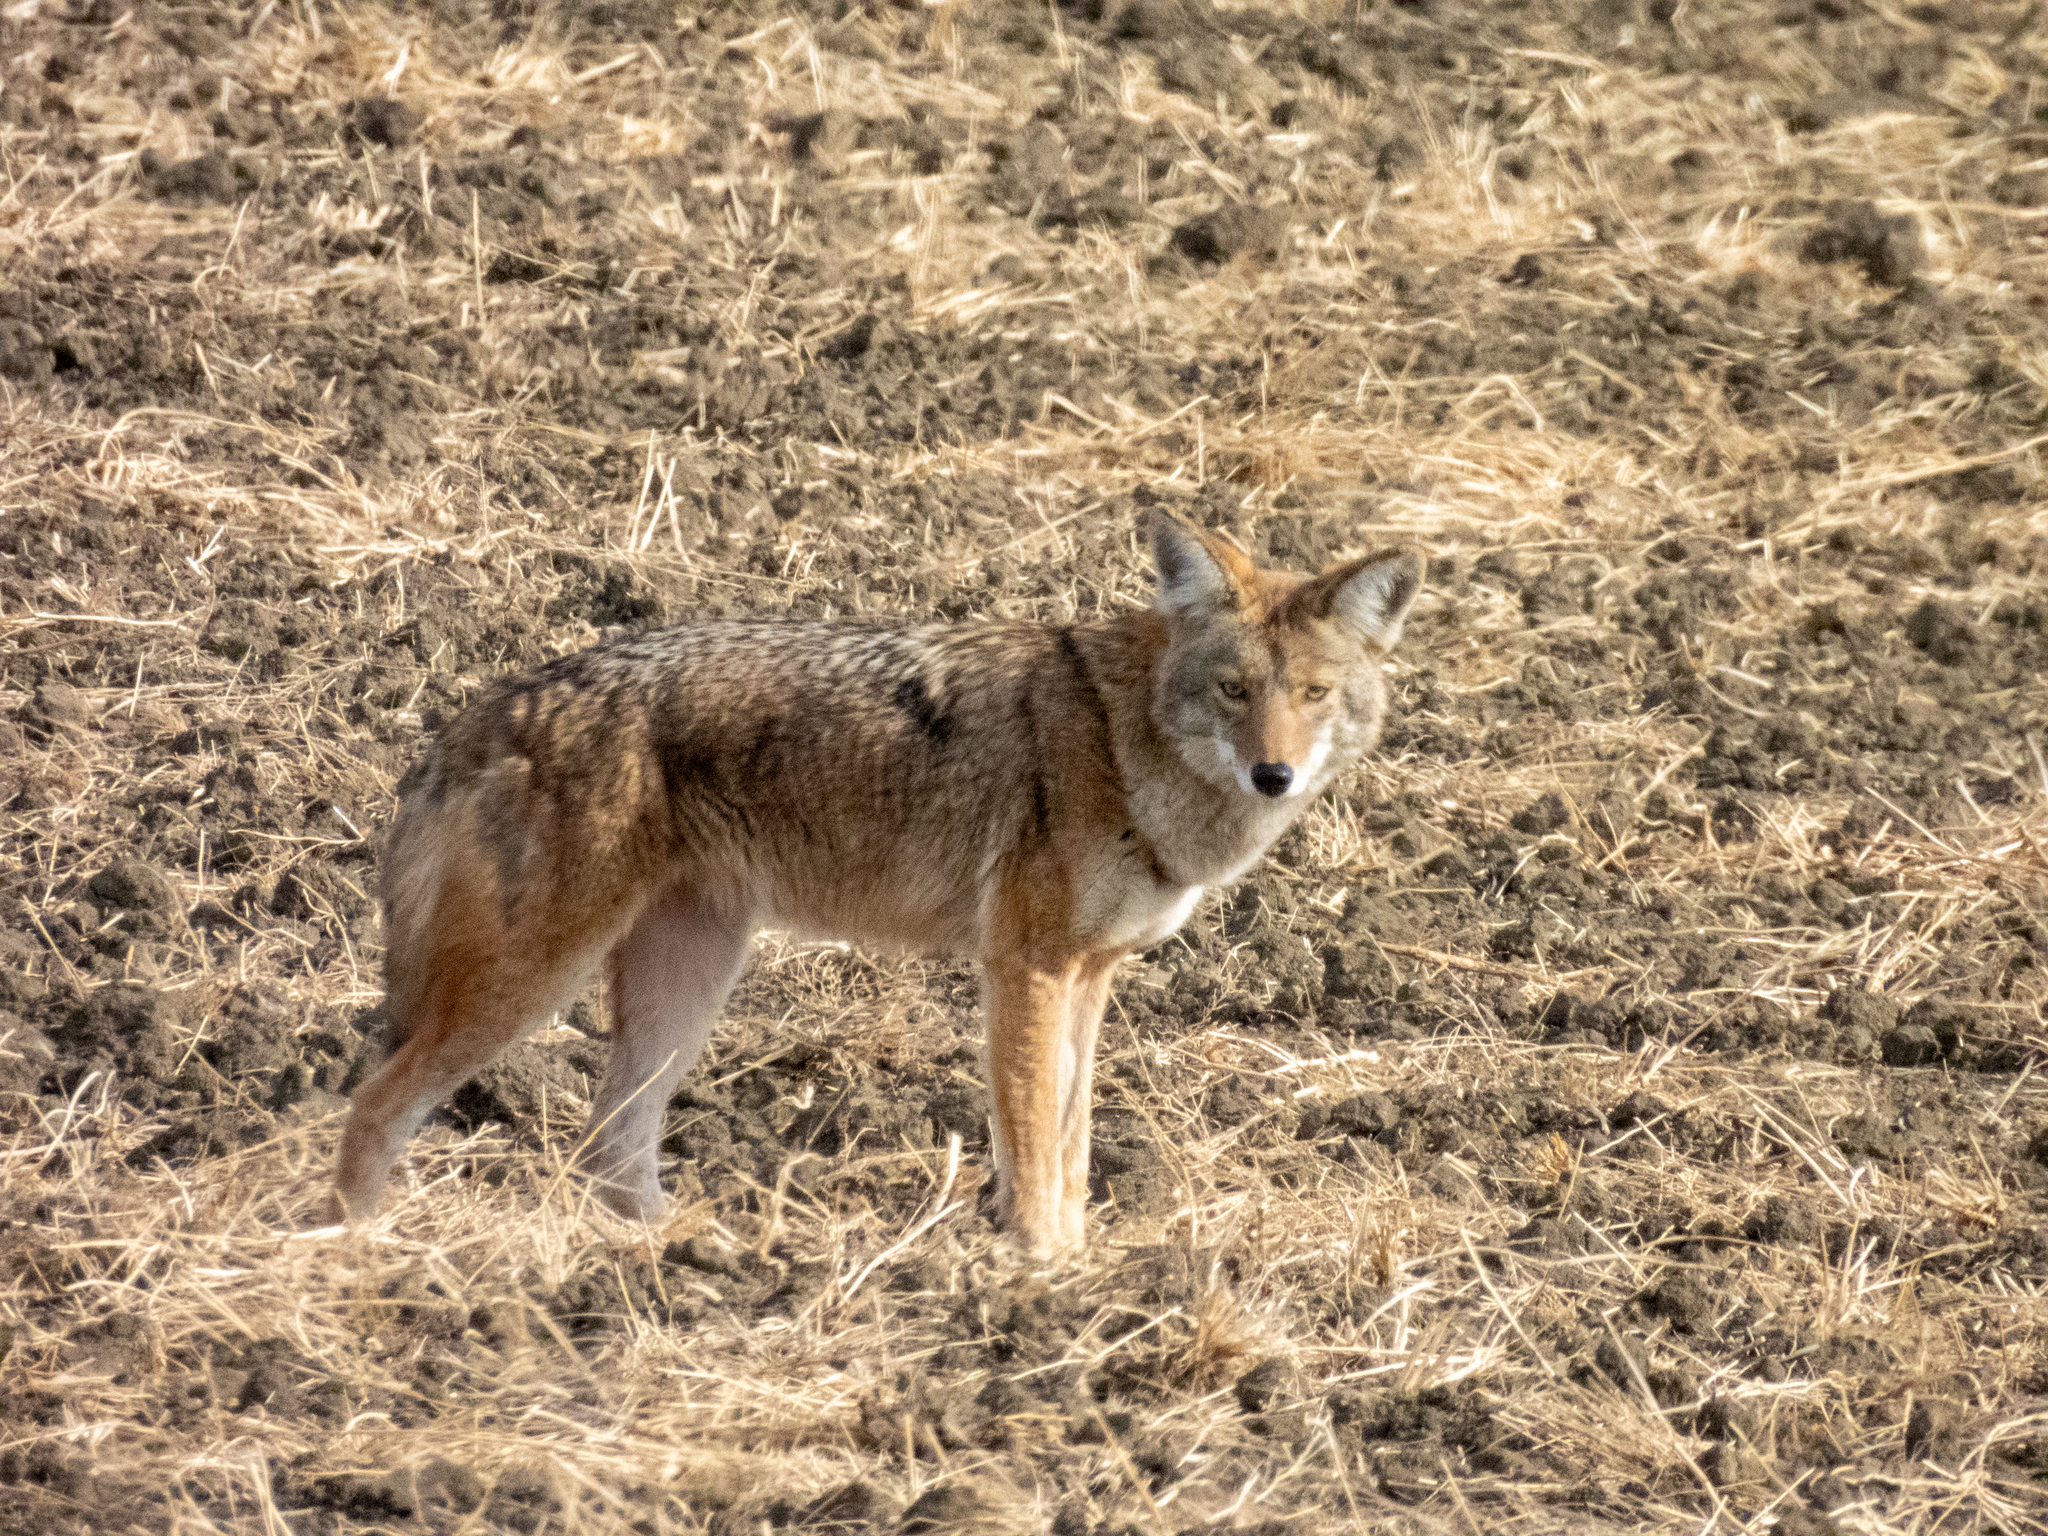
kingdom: Animalia
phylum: Chordata
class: Mammalia
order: Carnivora
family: Canidae
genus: Canis
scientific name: Canis latrans
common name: Coyote
